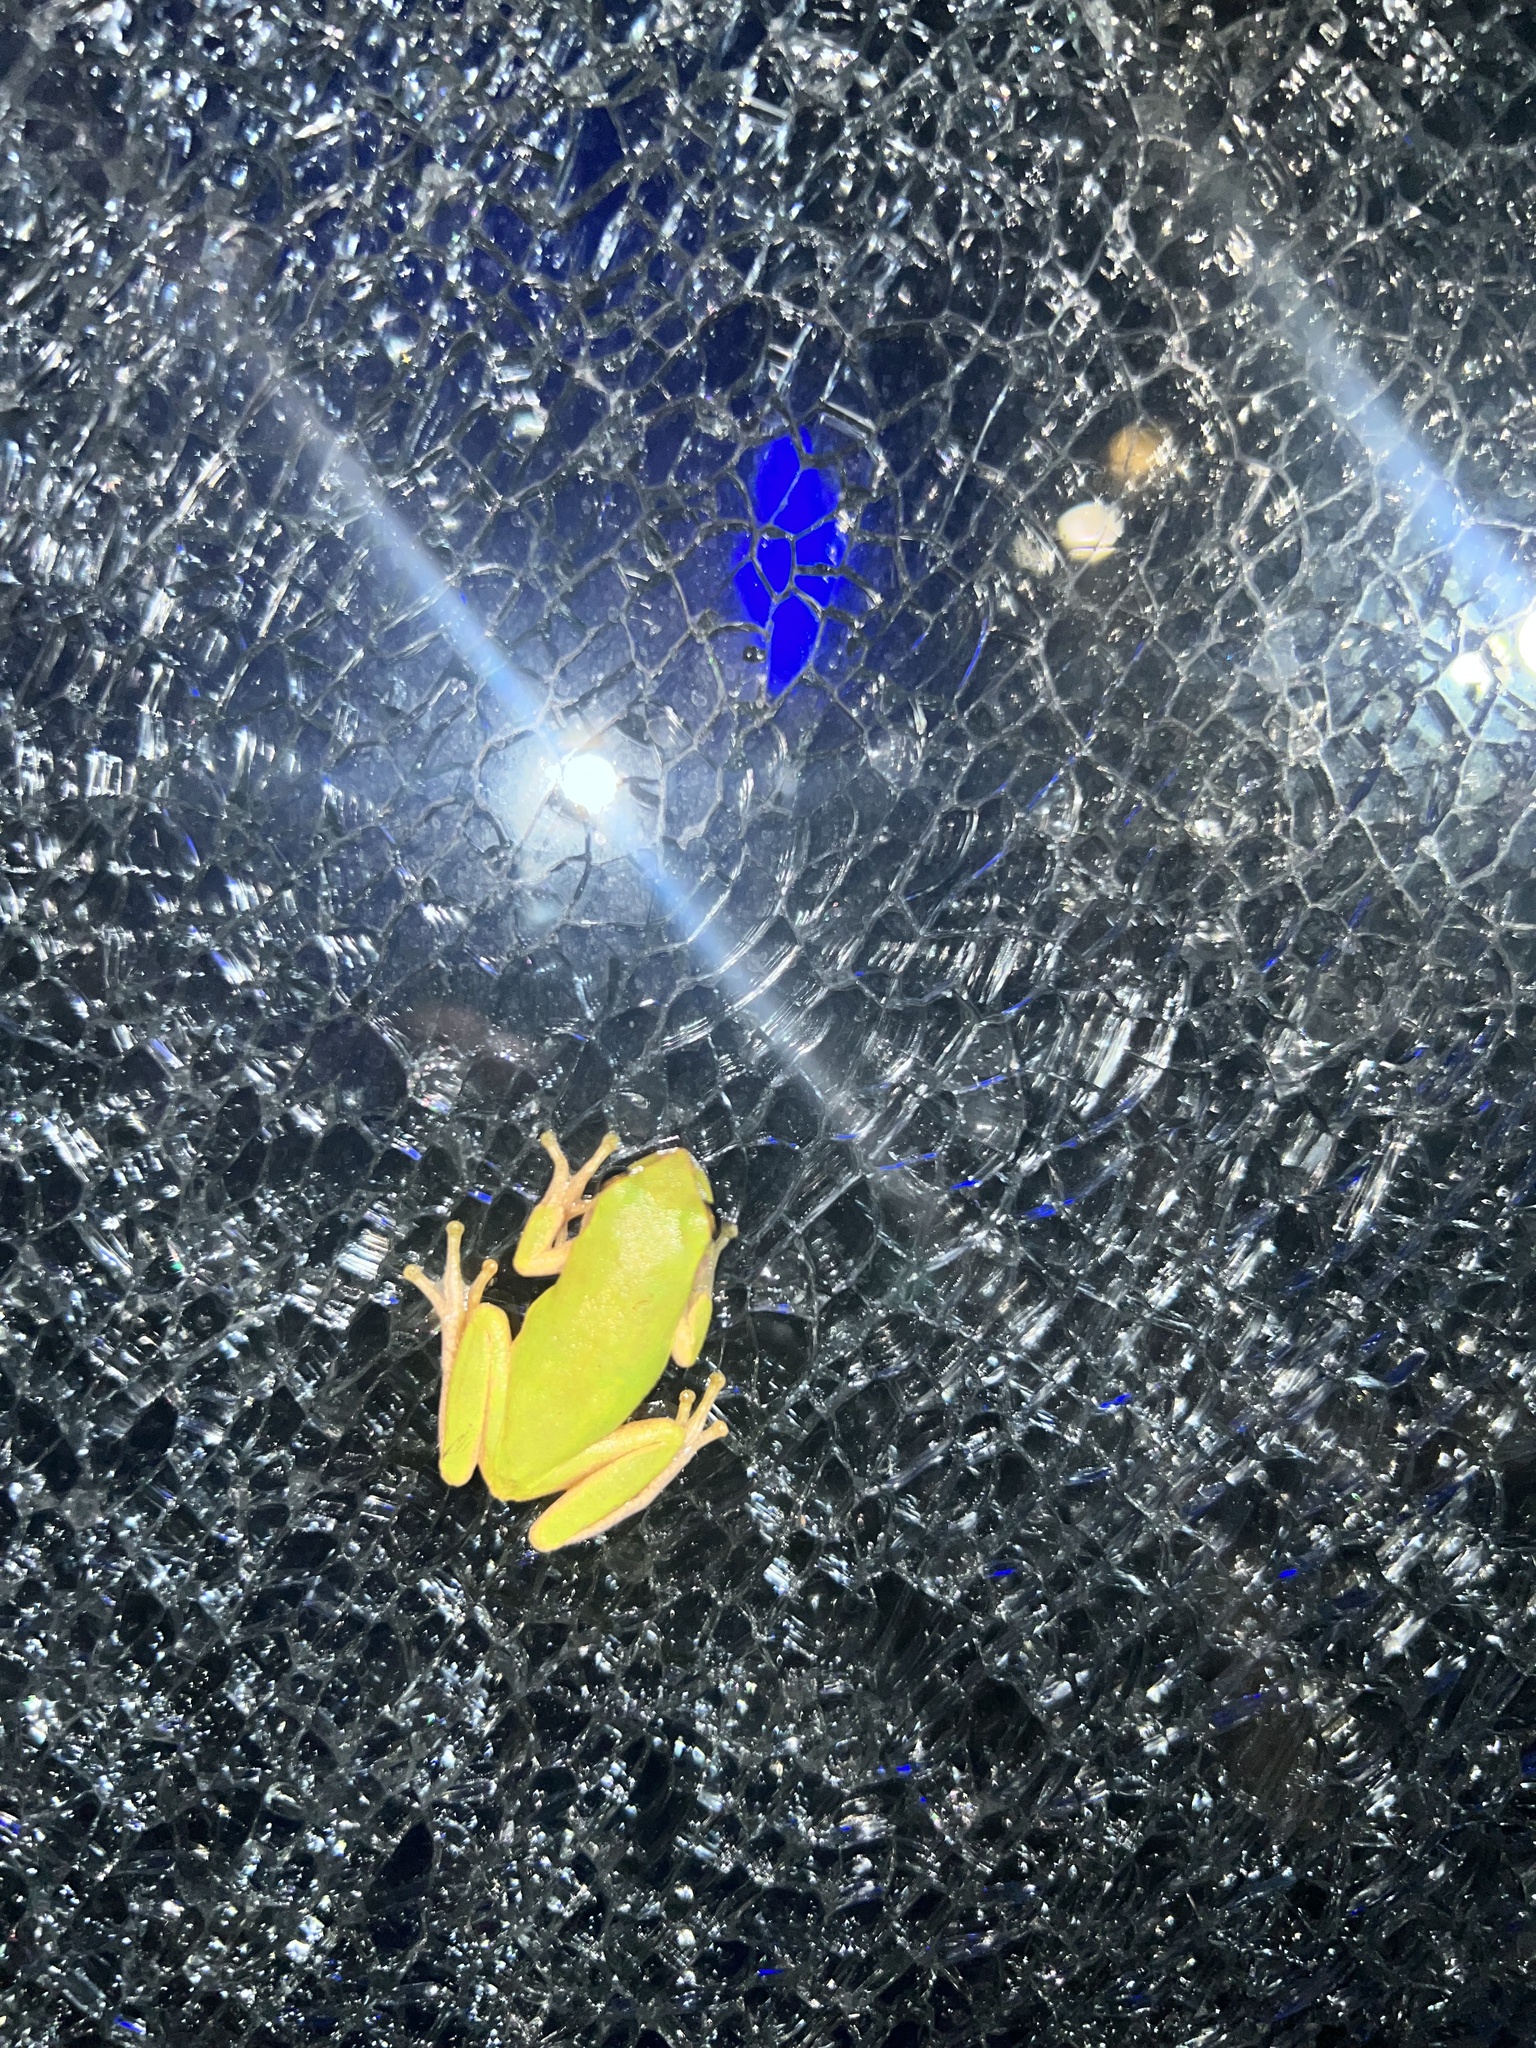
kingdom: Animalia
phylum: Chordata
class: Amphibia
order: Anura
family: Hylidae
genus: Dryophytes
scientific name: Dryophytes squirellus
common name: Squirrel treefrog
